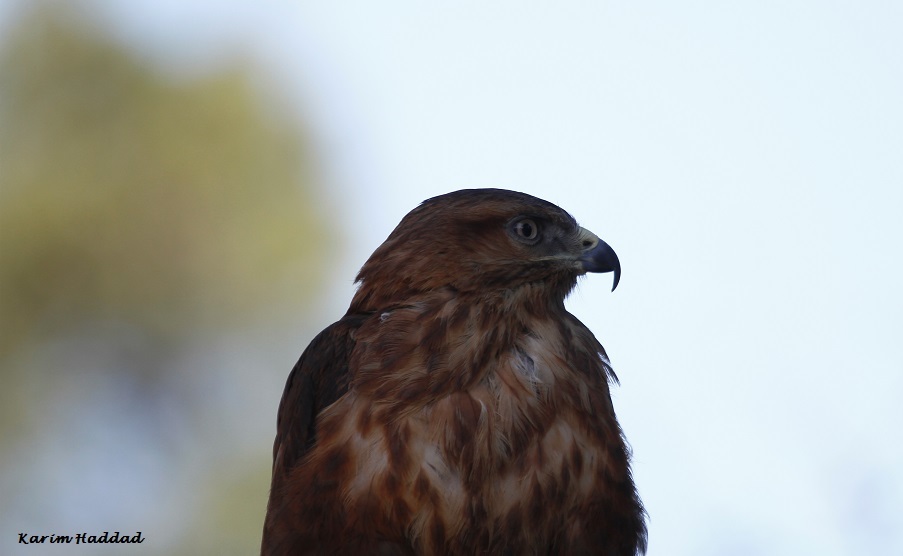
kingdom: Animalia
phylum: Chordata
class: Aves
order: Accipitriformes
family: Accipitridae
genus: Buteo
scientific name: Buteo rufinus
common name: Long-legged buzzard
